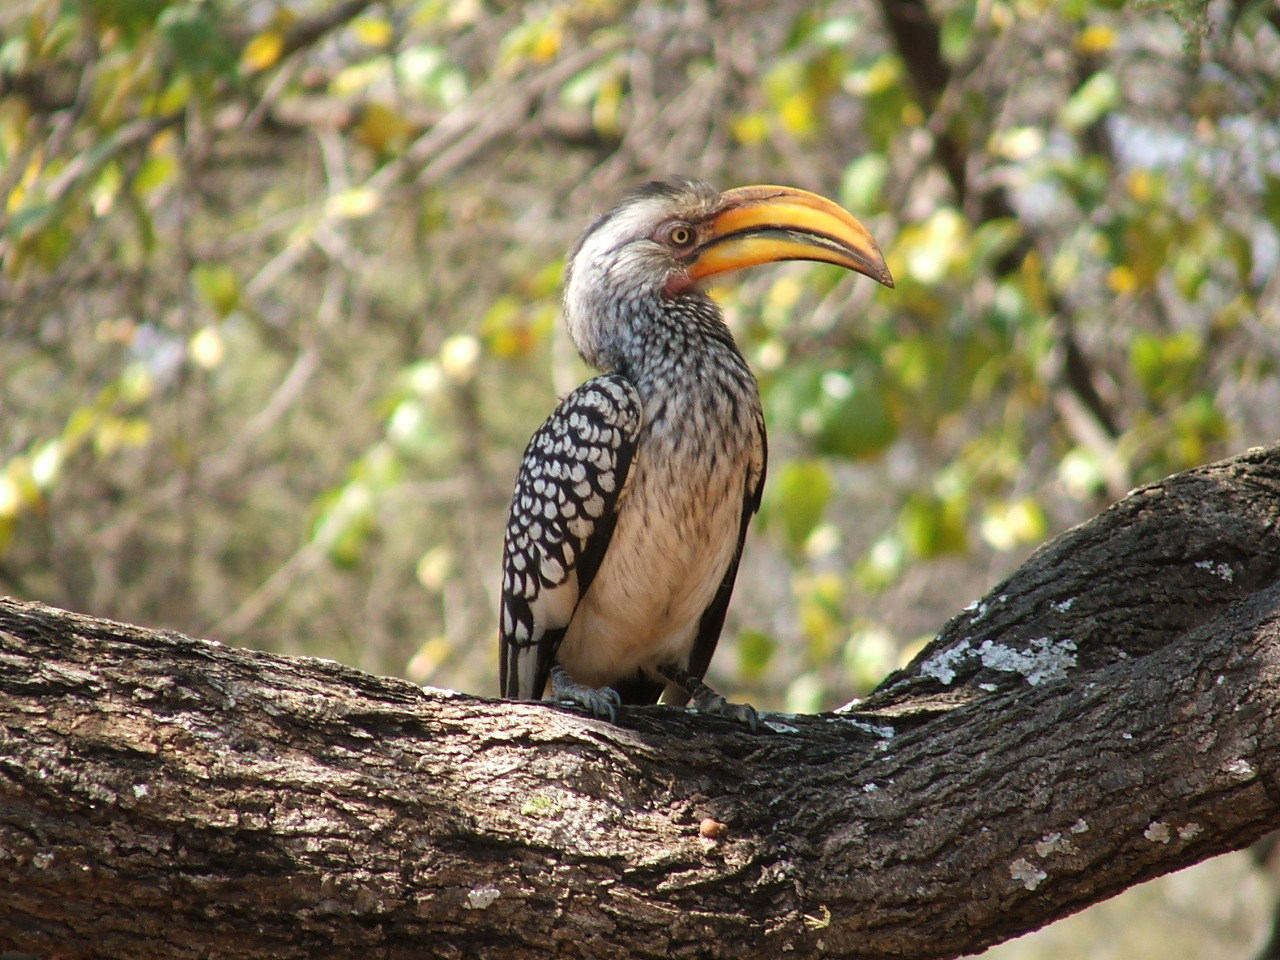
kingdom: Animalia
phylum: Chordata
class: Aves
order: Bucerotiformes
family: Bucerotidae
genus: Tockus
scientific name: Tockus leucomelas
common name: Southern yellow-billed hornbill
